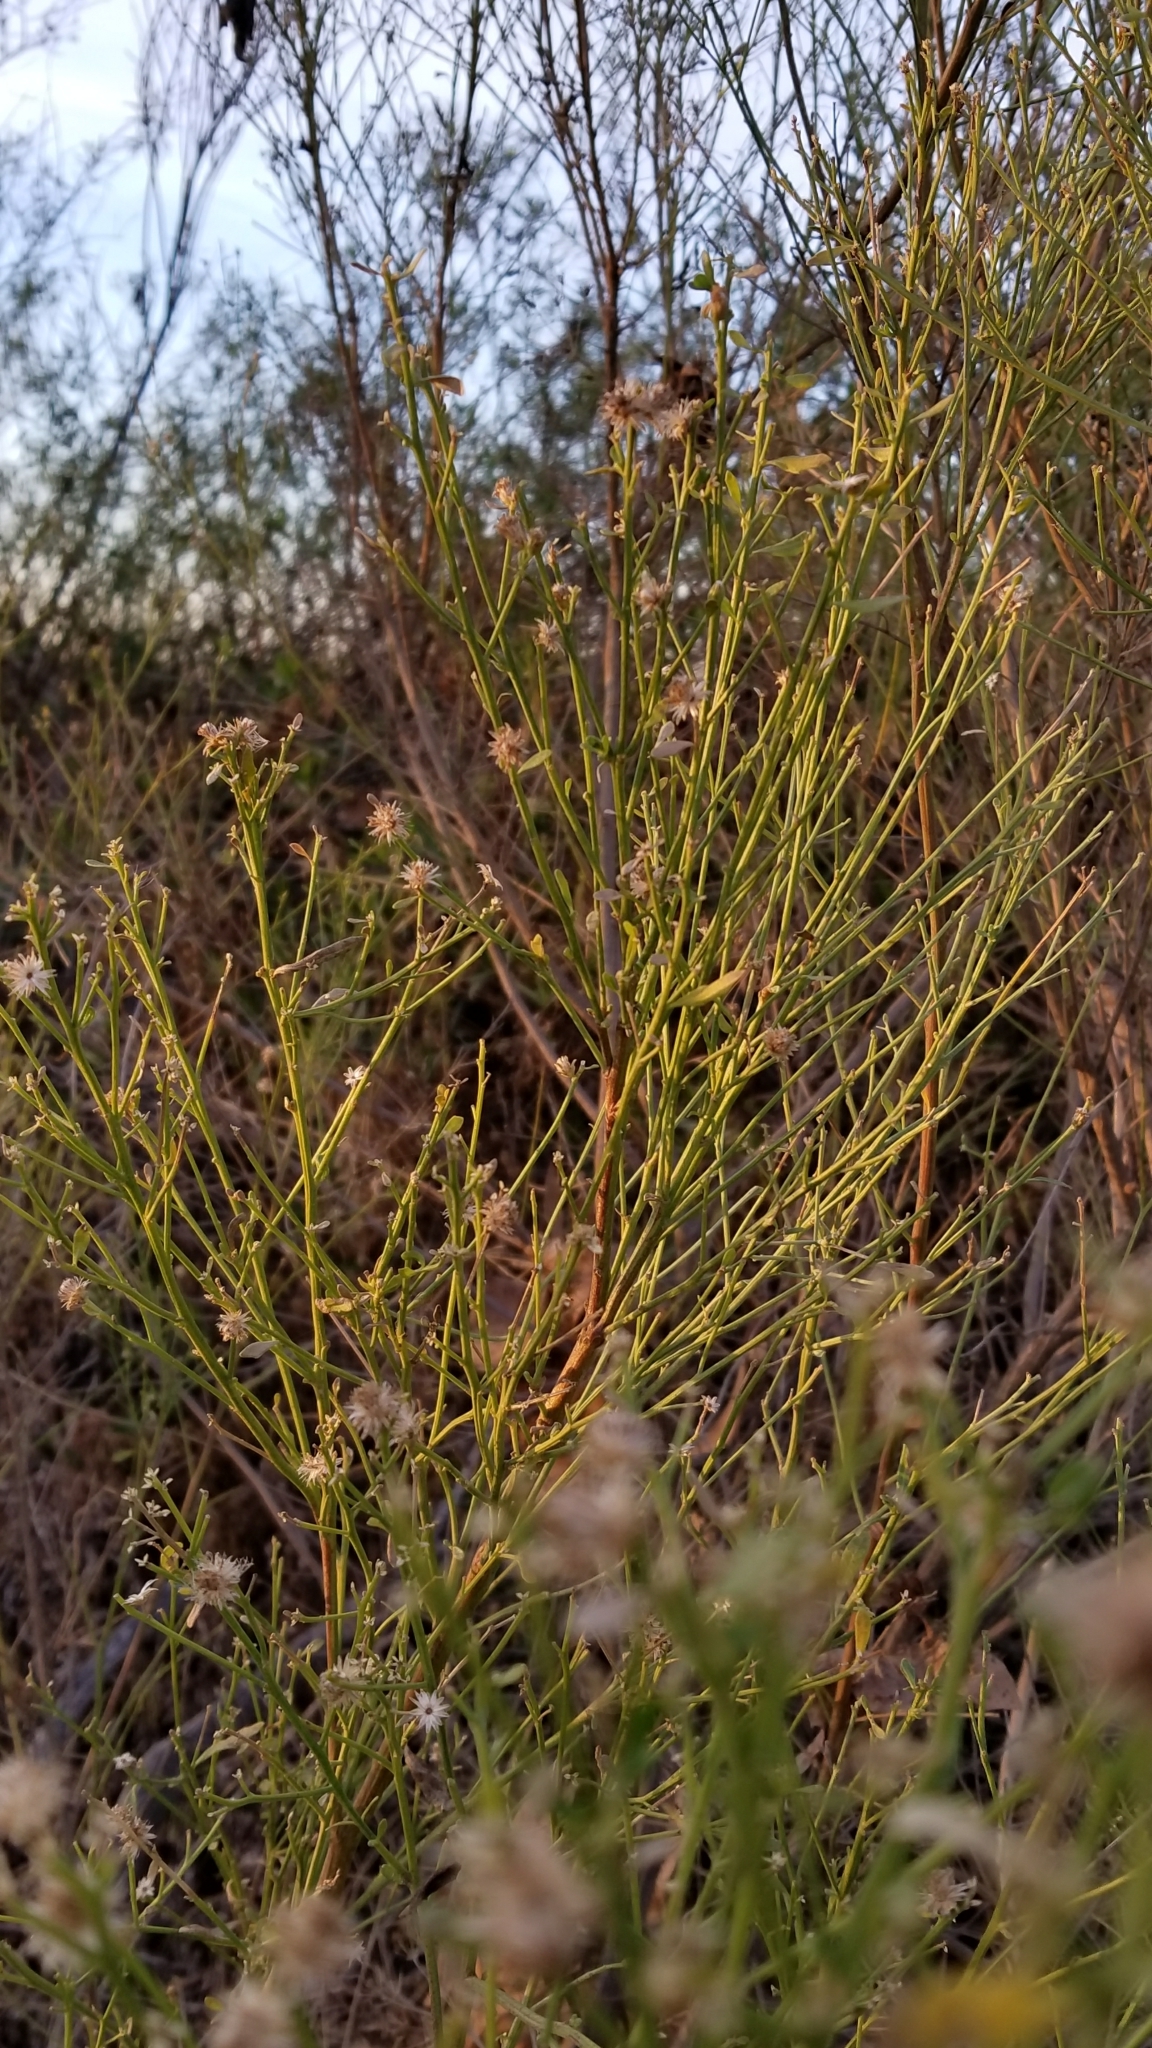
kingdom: Plantae
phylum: Tracheophyta
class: Magnoliopsida
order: Asterales
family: Asteraceae
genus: Lepidospartum
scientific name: Lepidospartum squamatum
